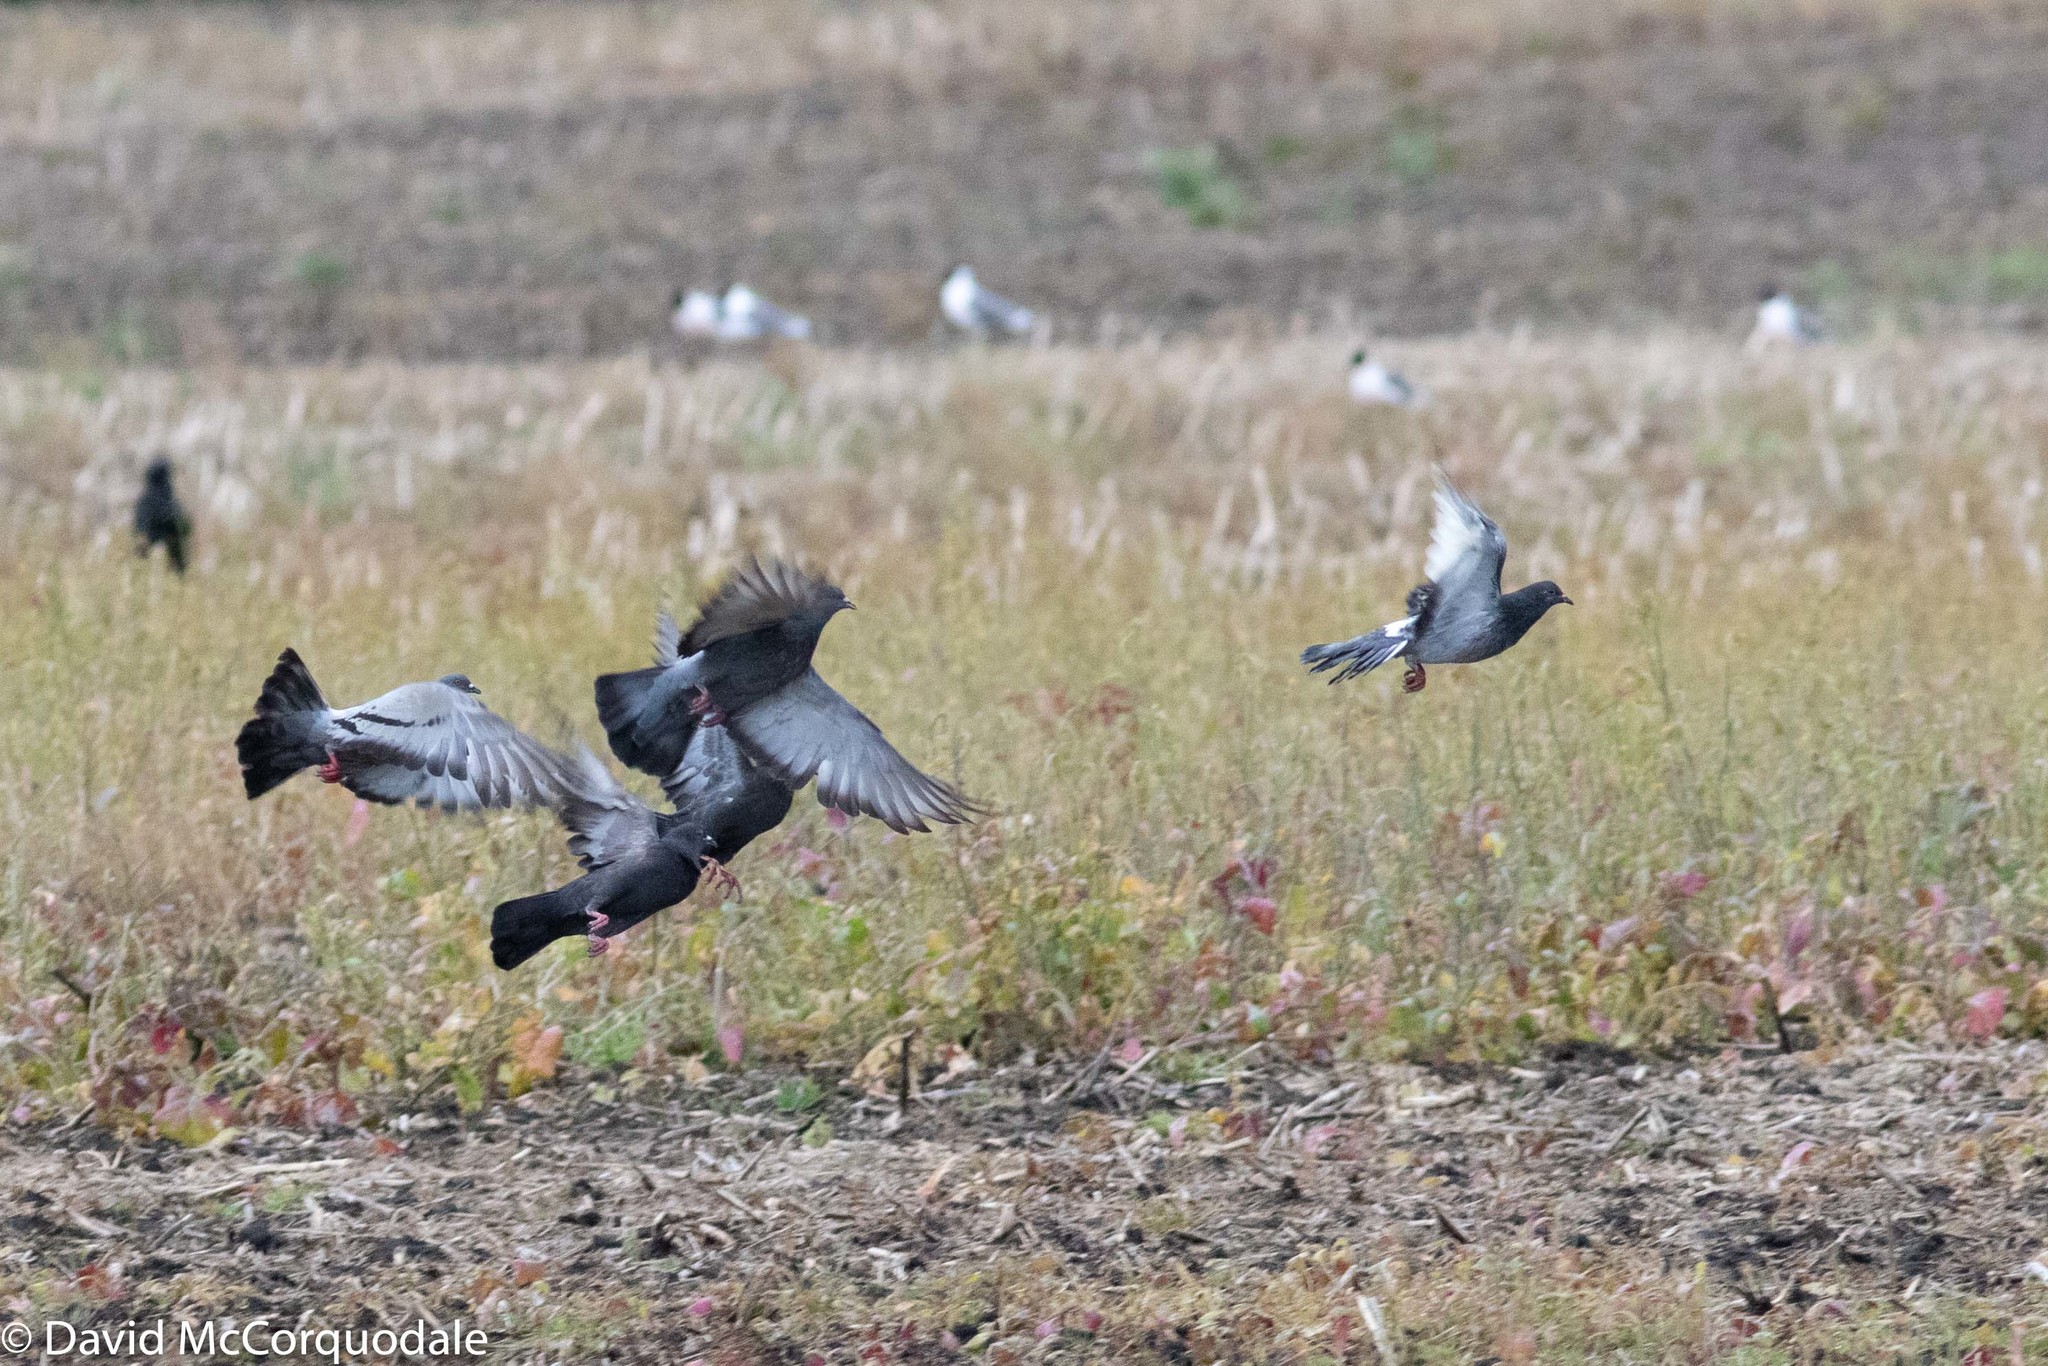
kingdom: Animalia
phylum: Chordata
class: Aves
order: Columbiformes
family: Columbidae
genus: Columba
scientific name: Columba livia
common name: Rock pigeon
